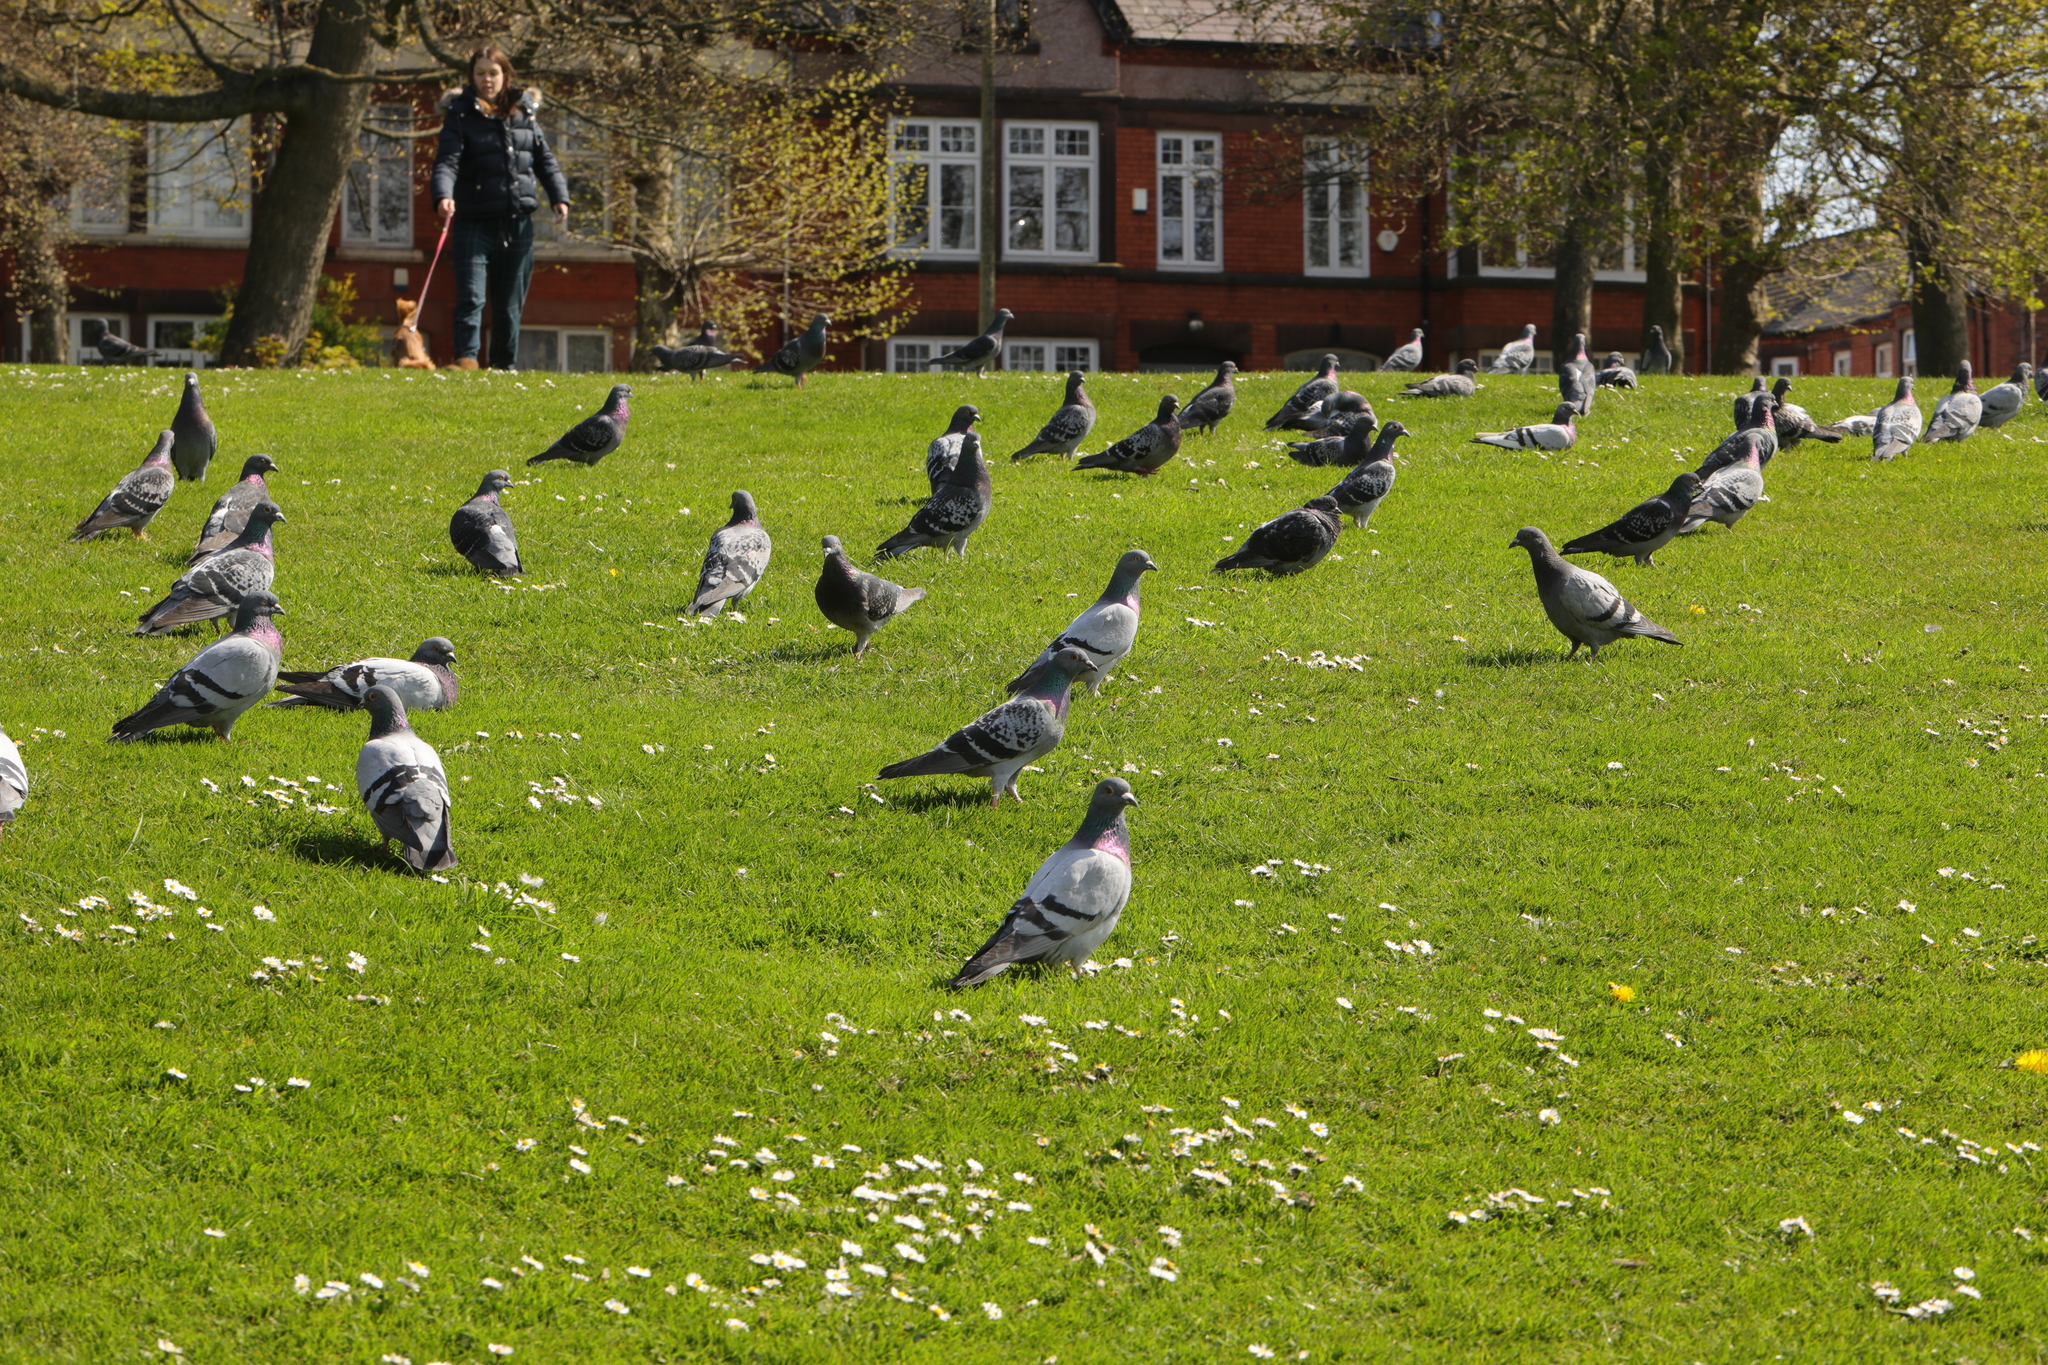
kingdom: Animalia
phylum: Chordata
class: Aves
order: Columbiformes
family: Columbidae
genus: Columba
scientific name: Columba livia
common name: Rock pigeon
